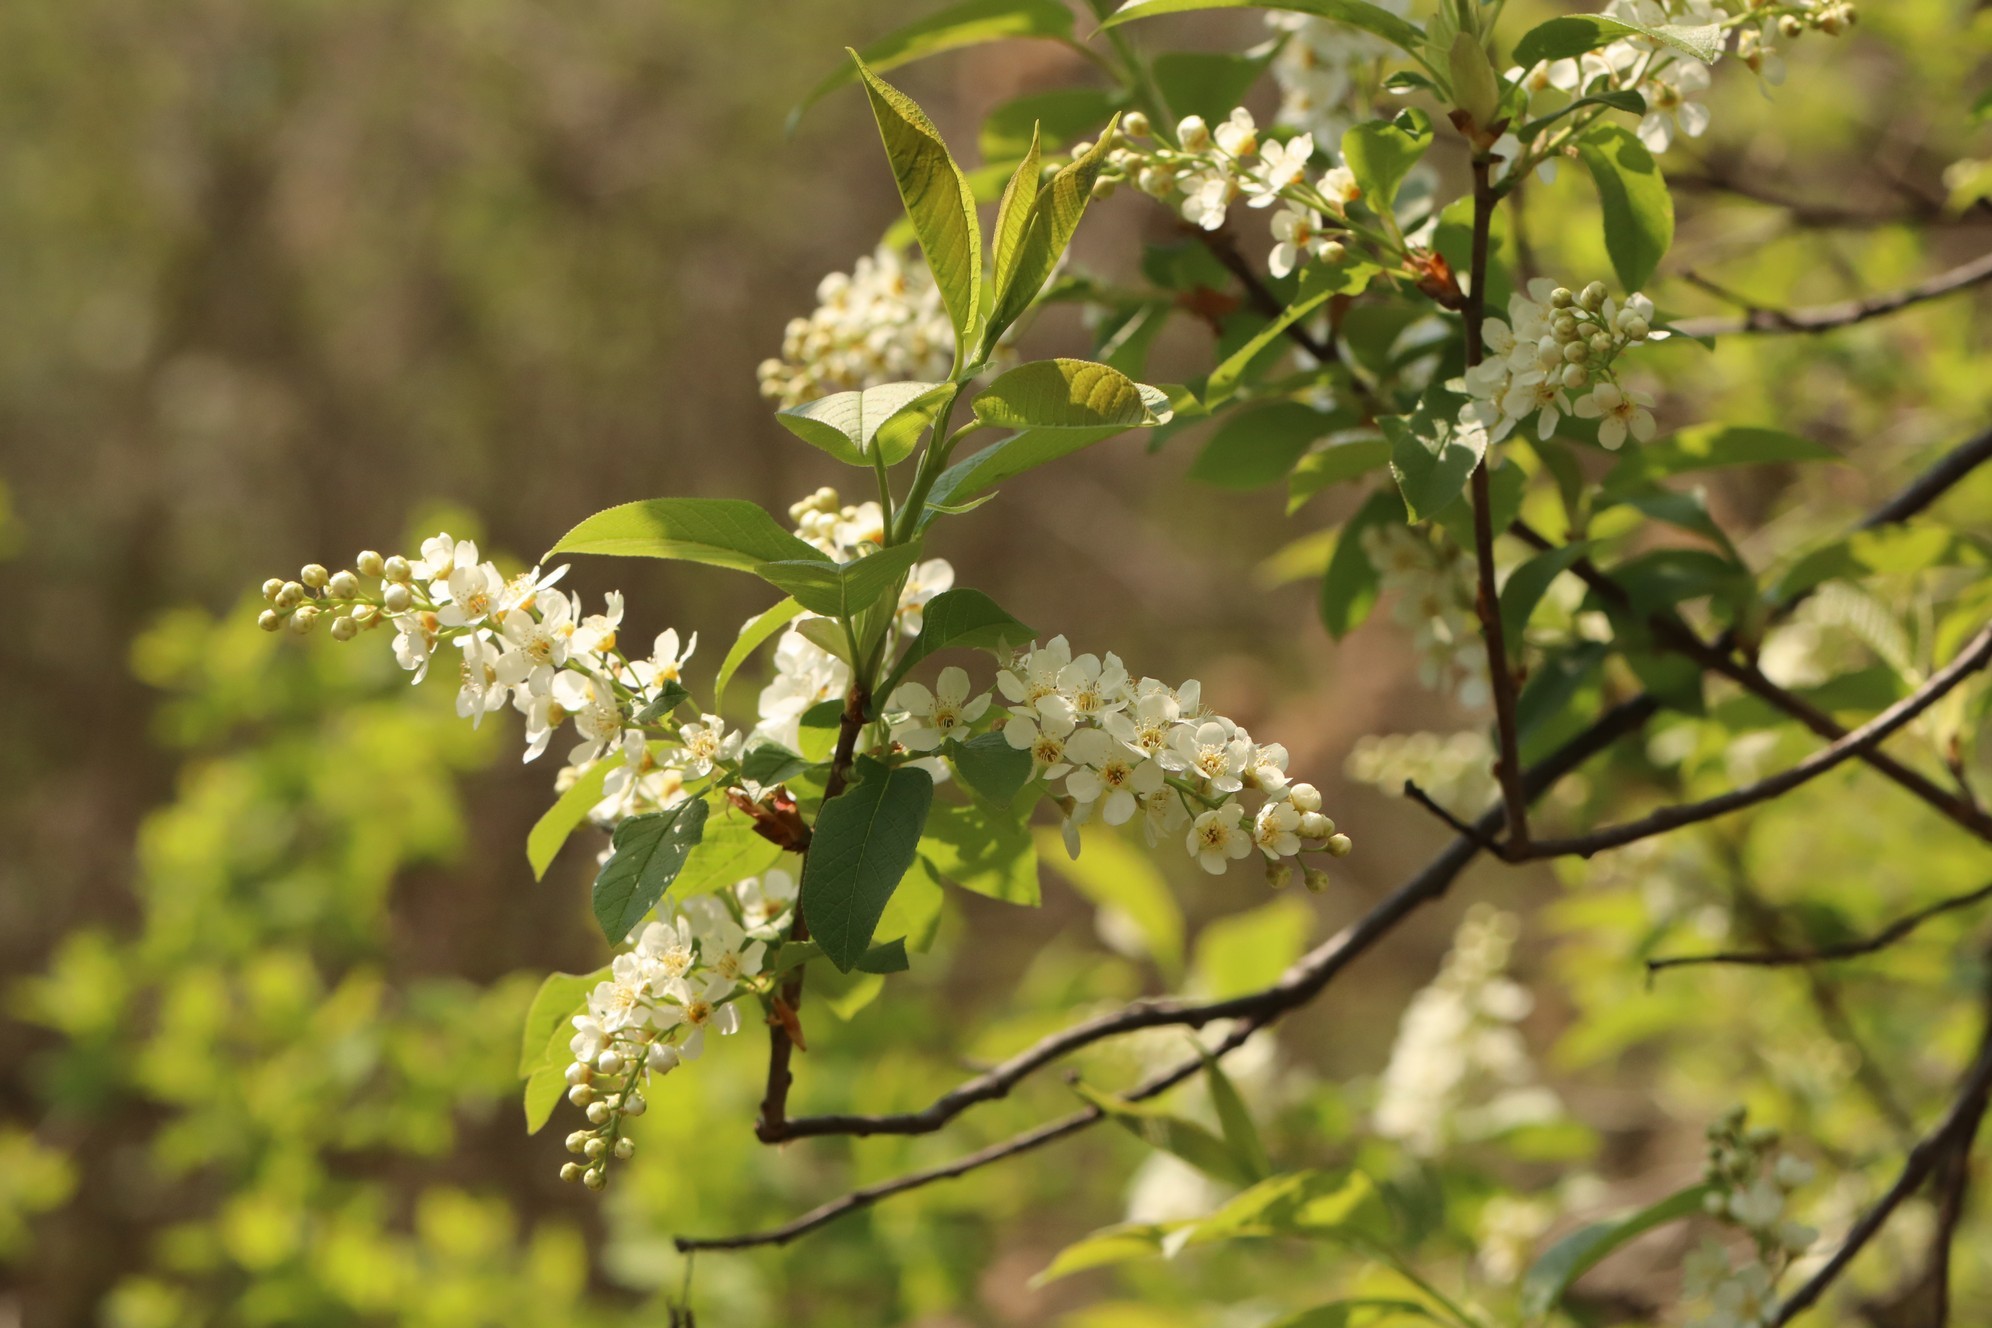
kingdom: Plantae
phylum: Tracheophyta
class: Magnoliopsida
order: Rosales
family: Rosaceae
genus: Prunus
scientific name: Prunus padus
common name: Bird cherry
